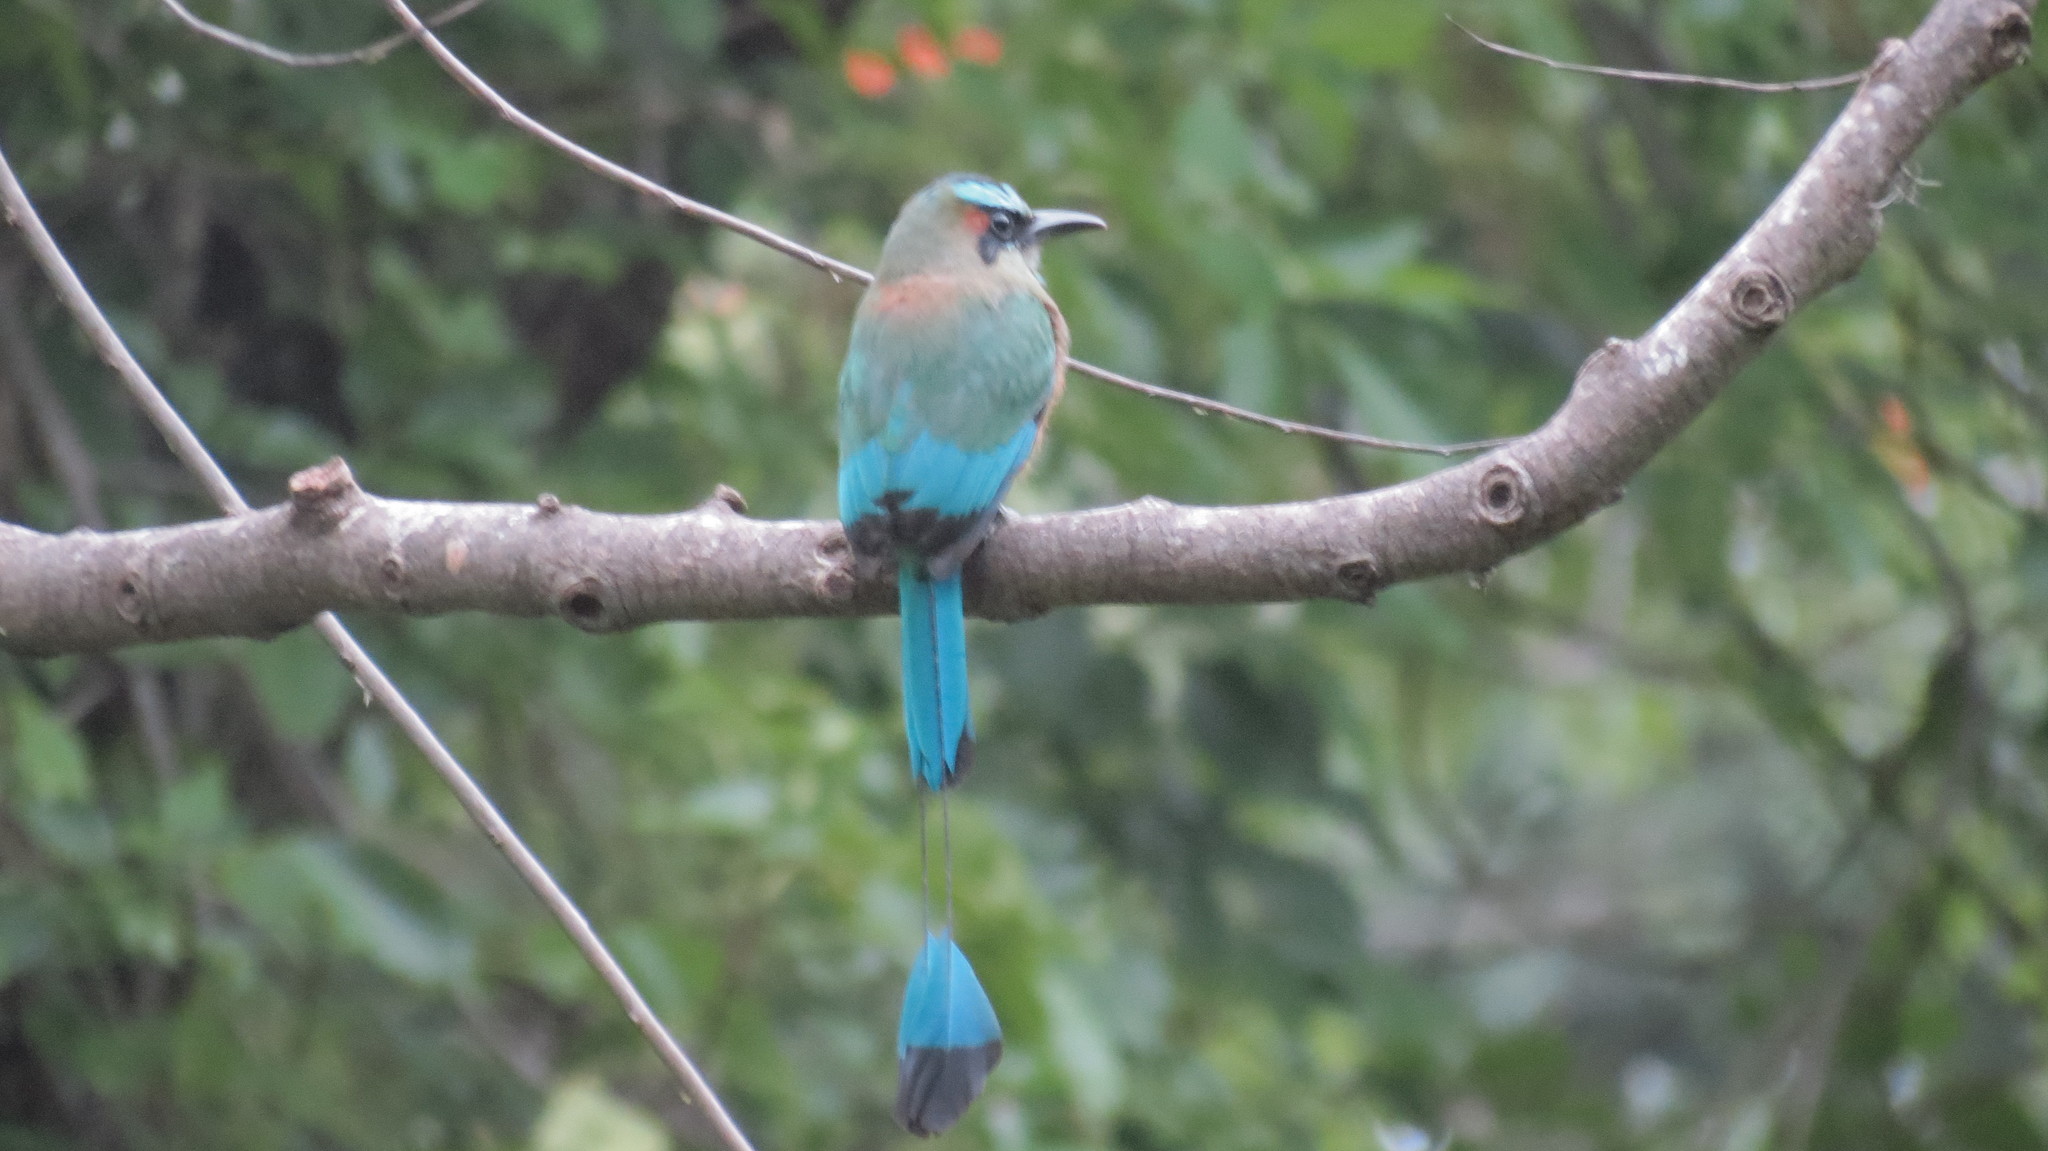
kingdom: Animalia
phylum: Chordata
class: Aves
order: Coraciiformes
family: Momotidae
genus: Eumomota
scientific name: Eumomota superciliosa
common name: Turquoise-browed motmot
